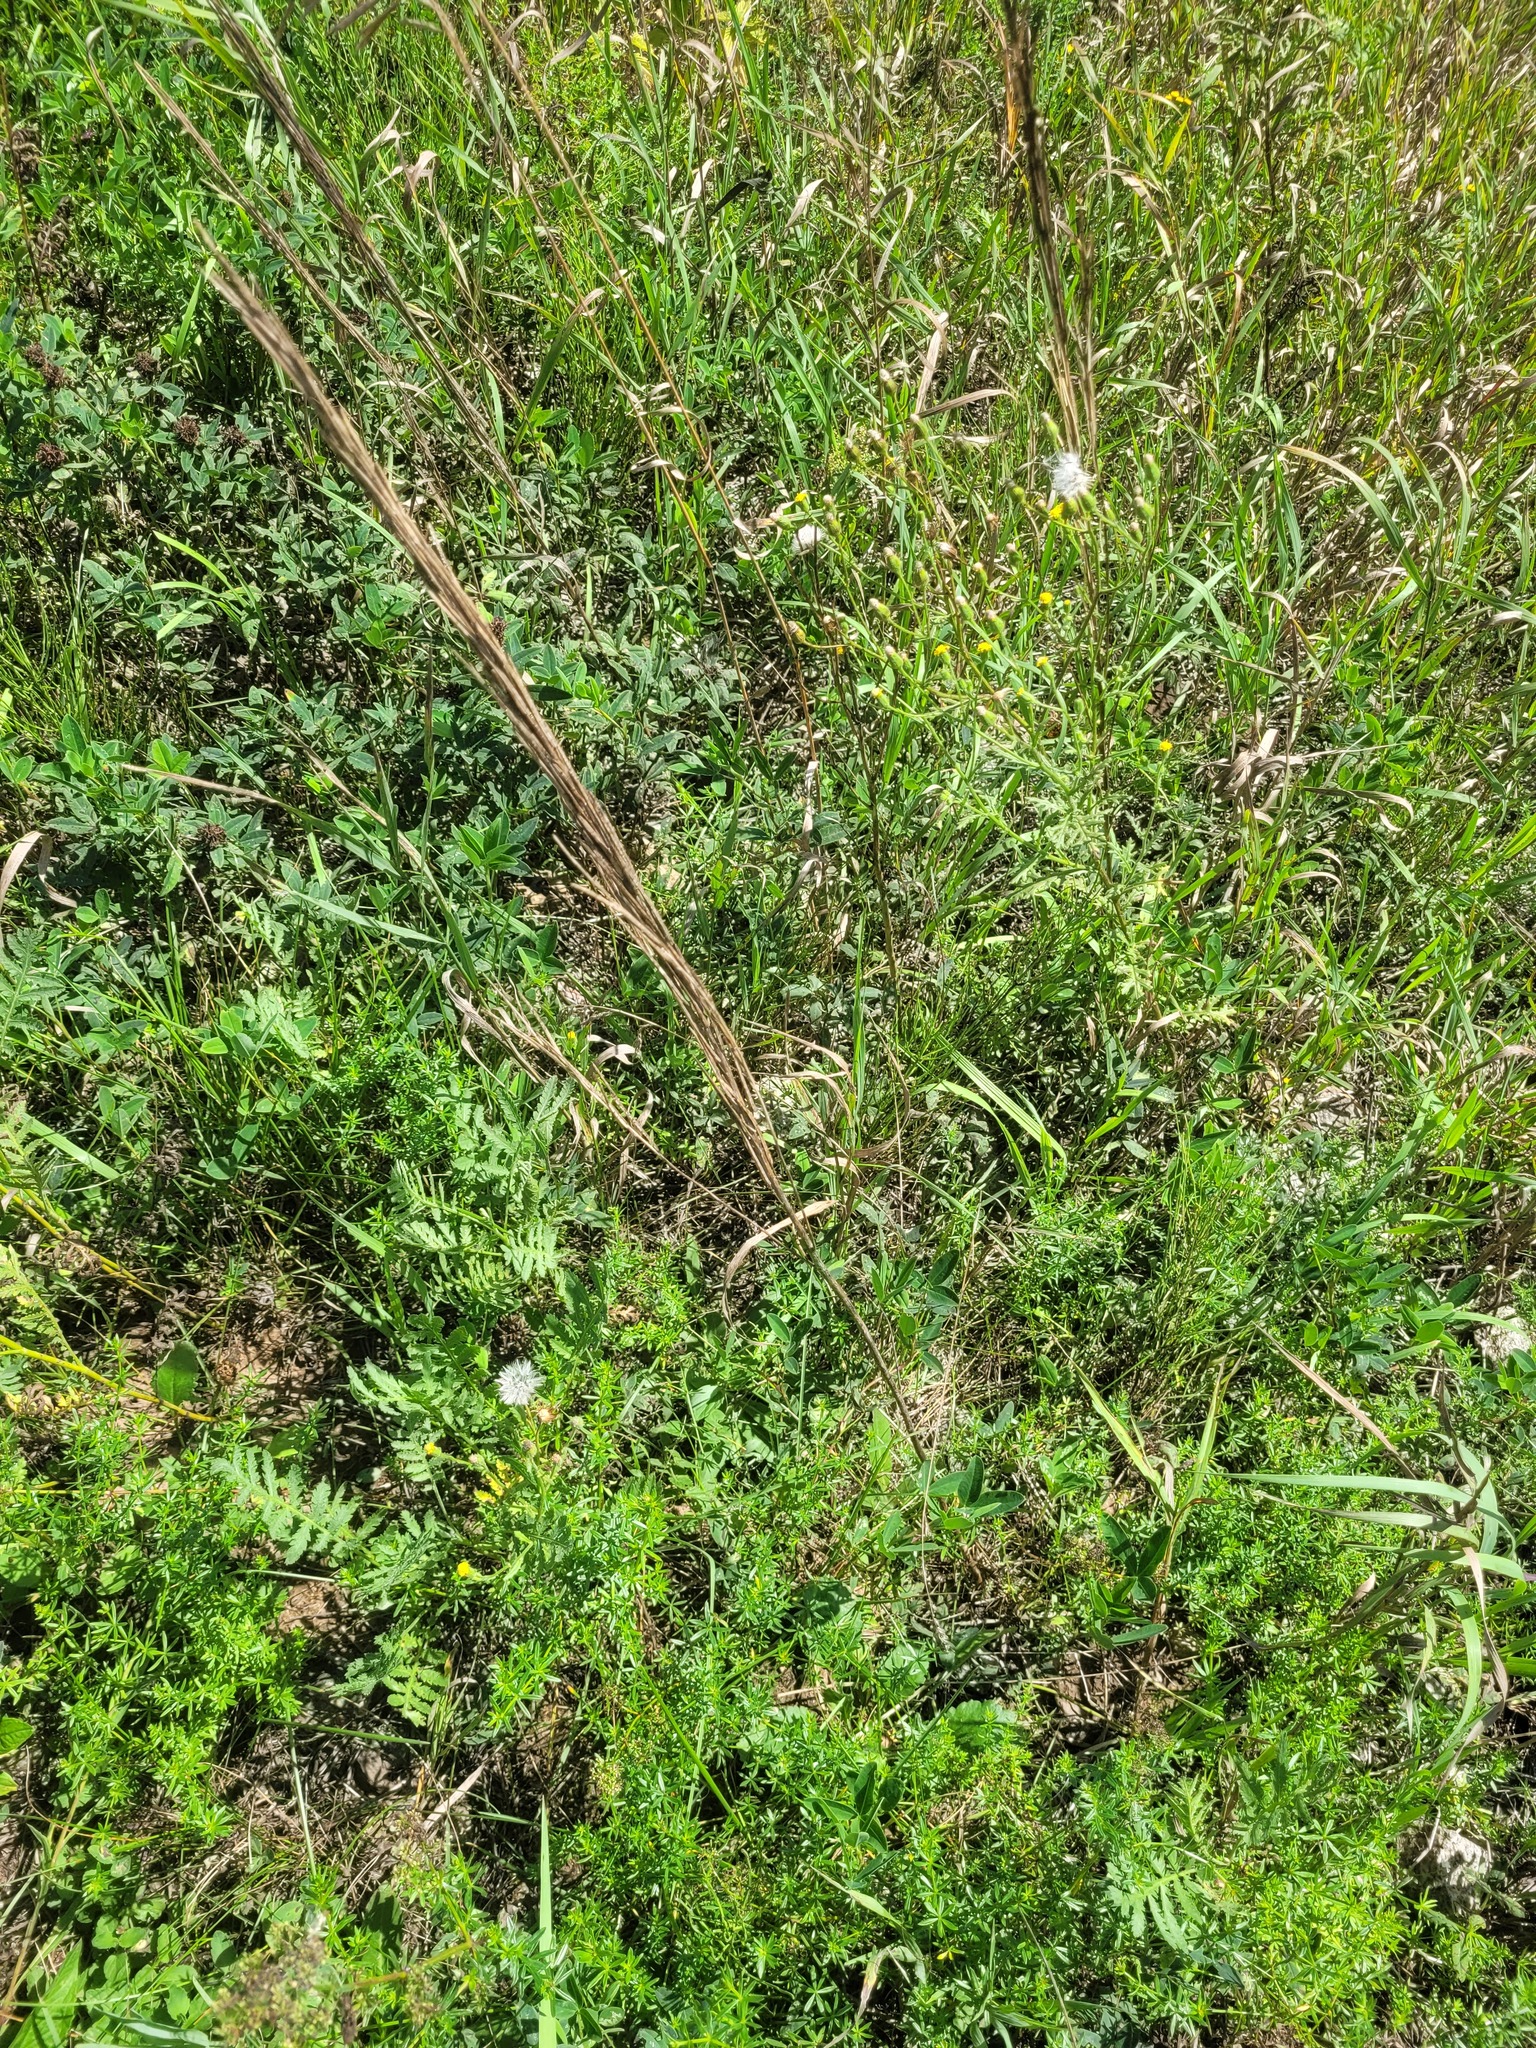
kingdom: Plantae
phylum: Tracheophyta
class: Magnoliopsida
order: Brassicales
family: Brassicaceae
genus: Turritis
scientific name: Turritis glabra
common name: Tower rockcress
